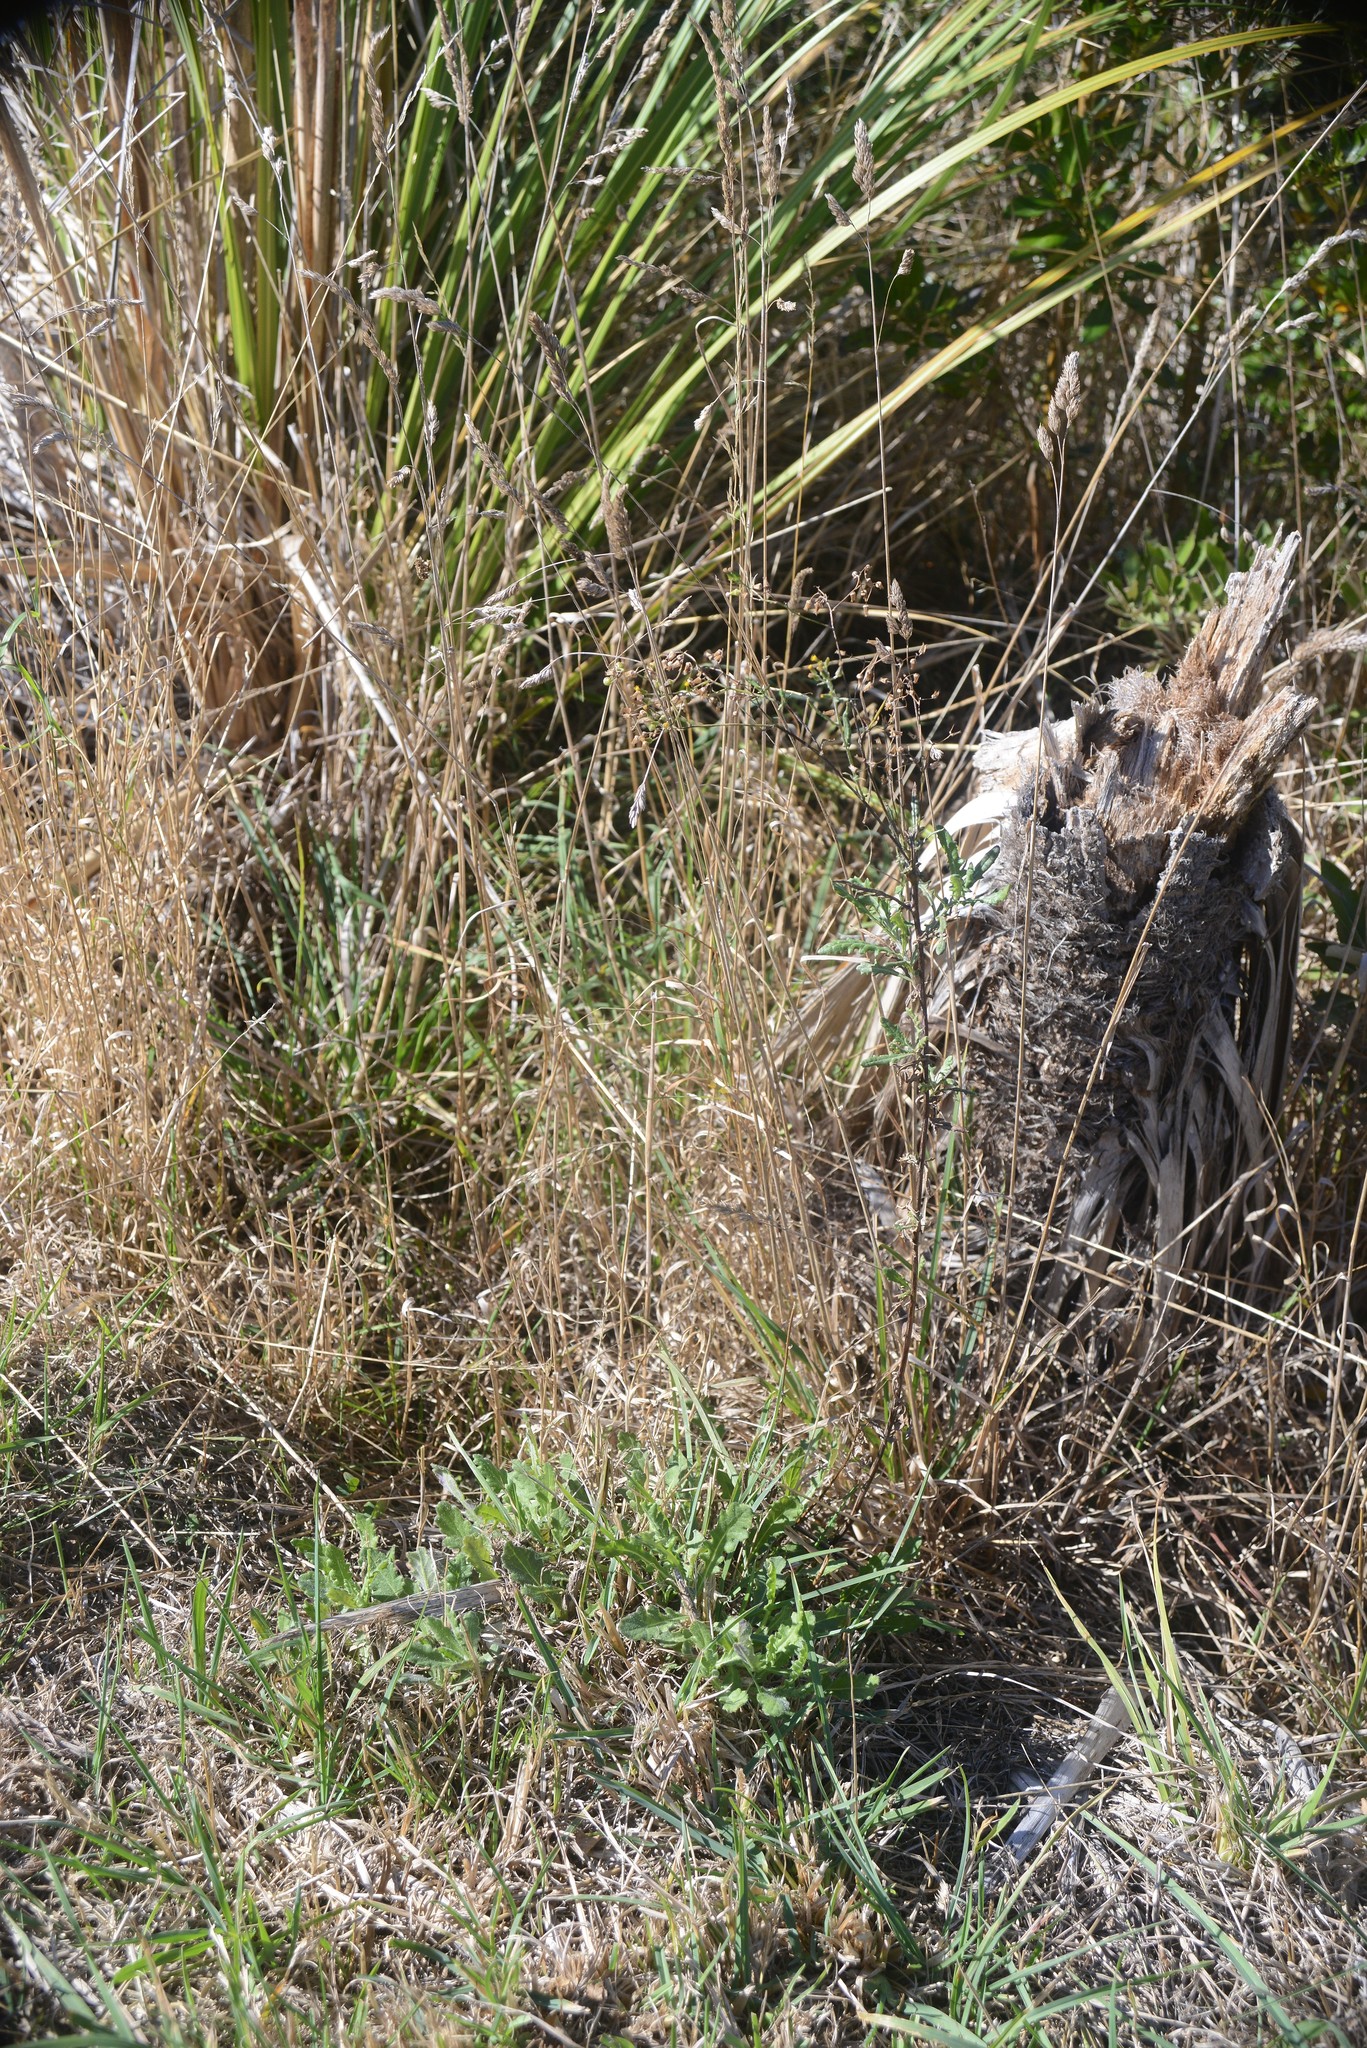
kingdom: Plantae
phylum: Tracheophyta
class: Magnoliopsida
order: Asterales
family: Asteraceae
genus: Senecio
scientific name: Senecio glomeratus
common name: Cutleaf burnweed
